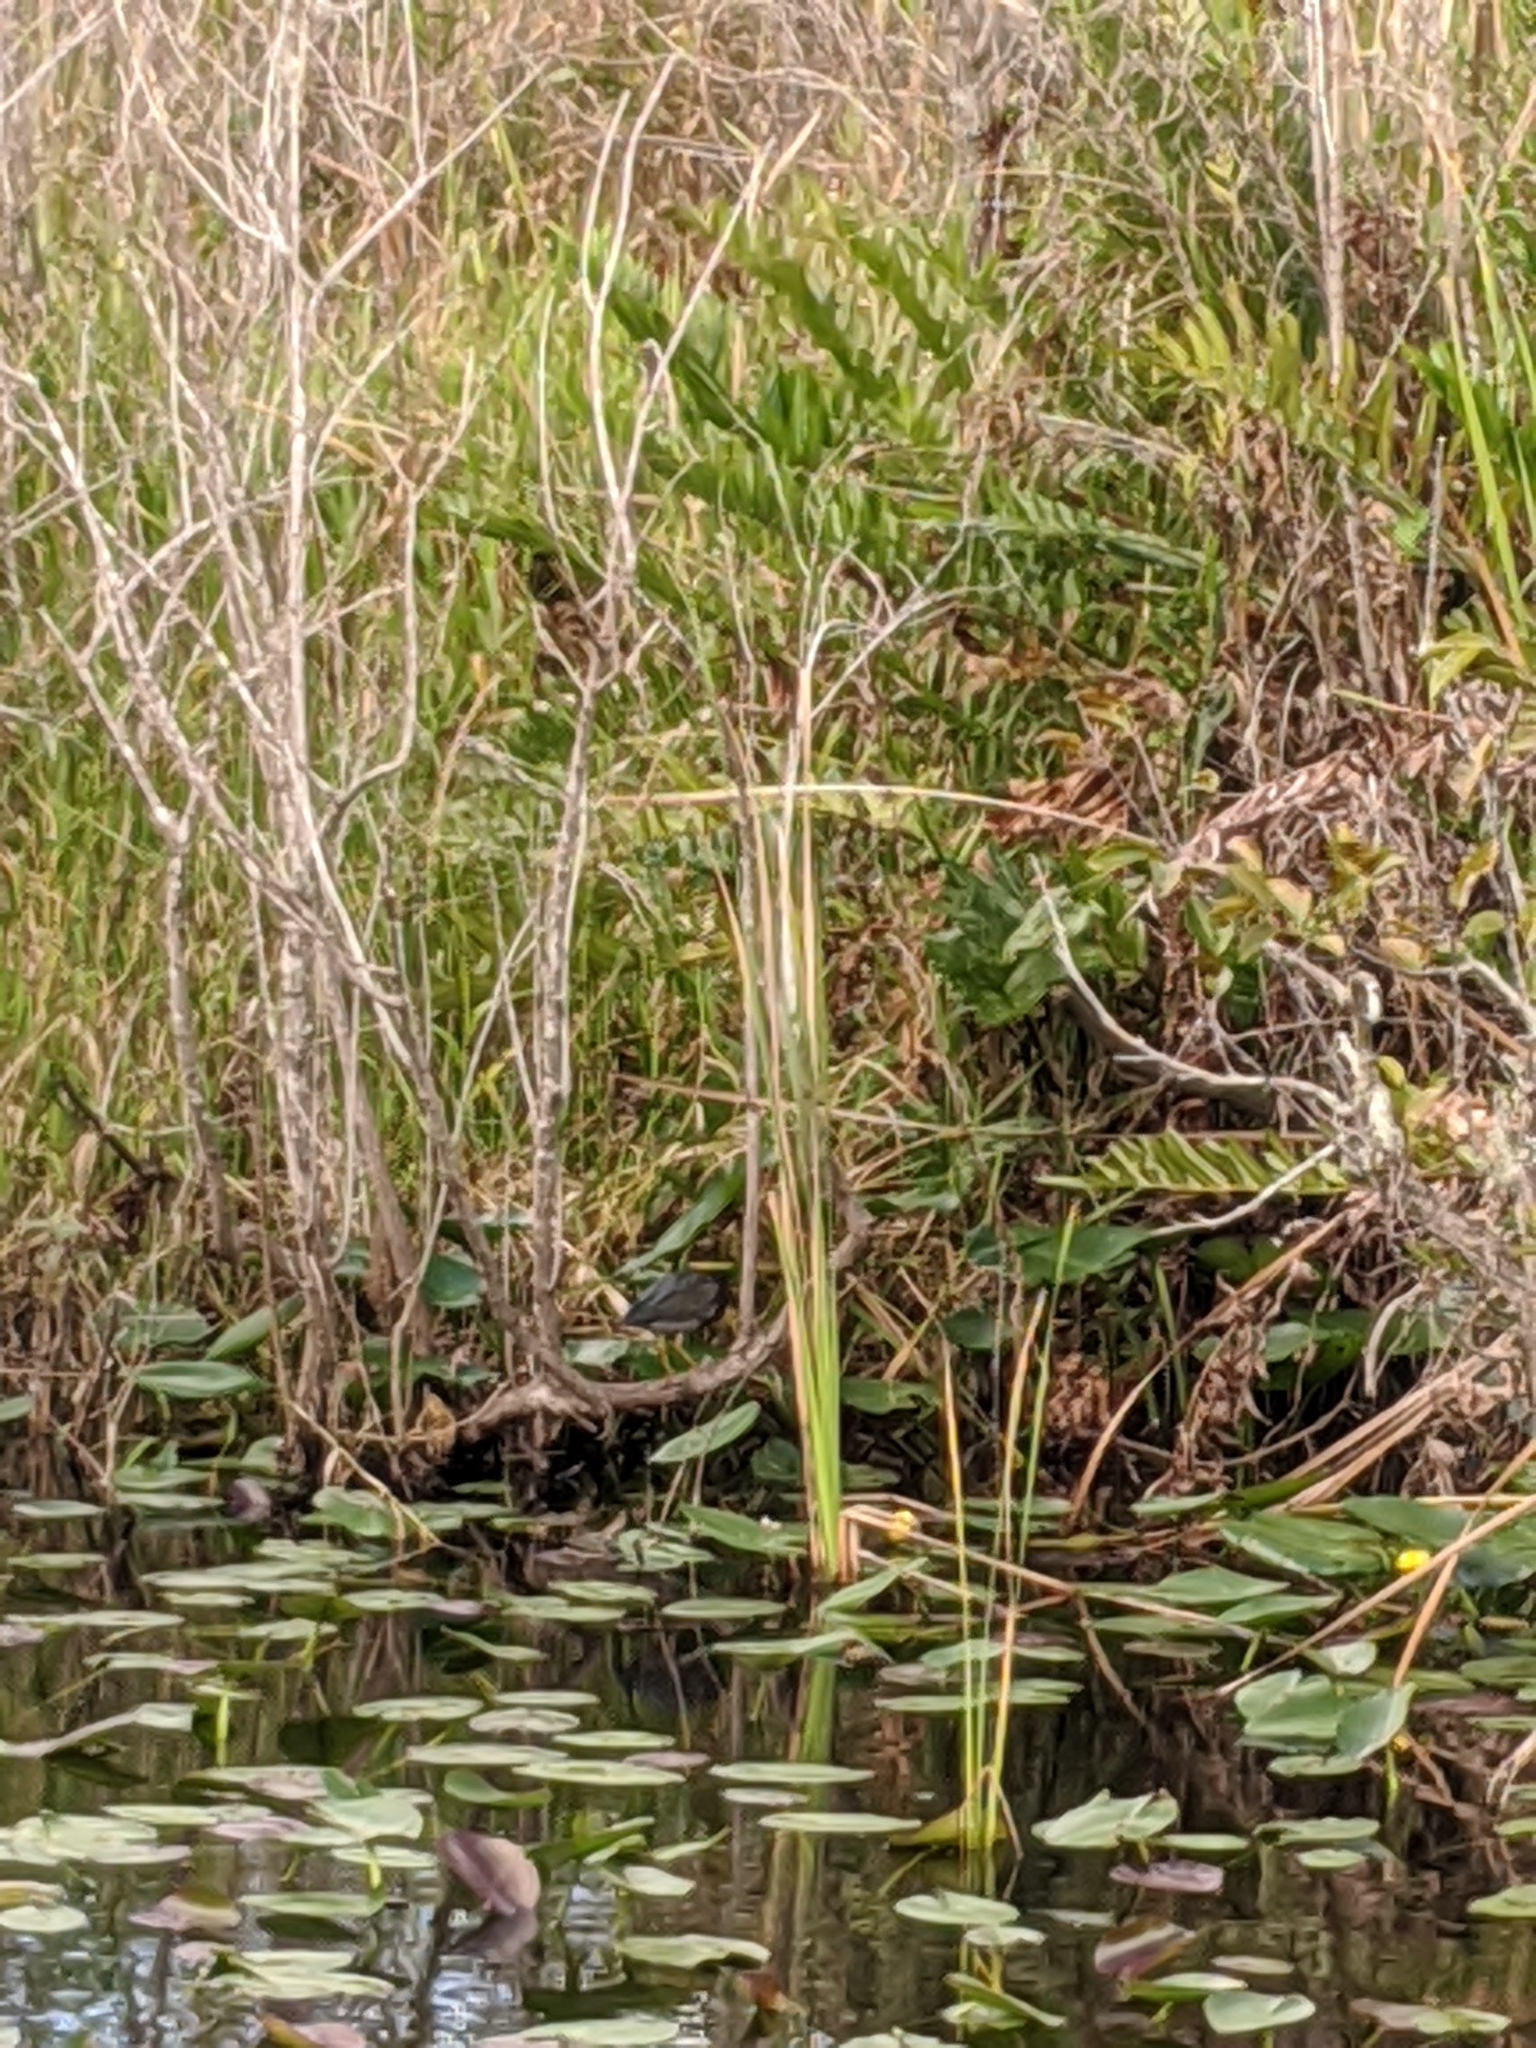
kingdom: Animalia
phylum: Chordata
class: Aves
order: Pelecaniformes
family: Ardeidae
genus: Butorides
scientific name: Butorides virescens
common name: Green heron
